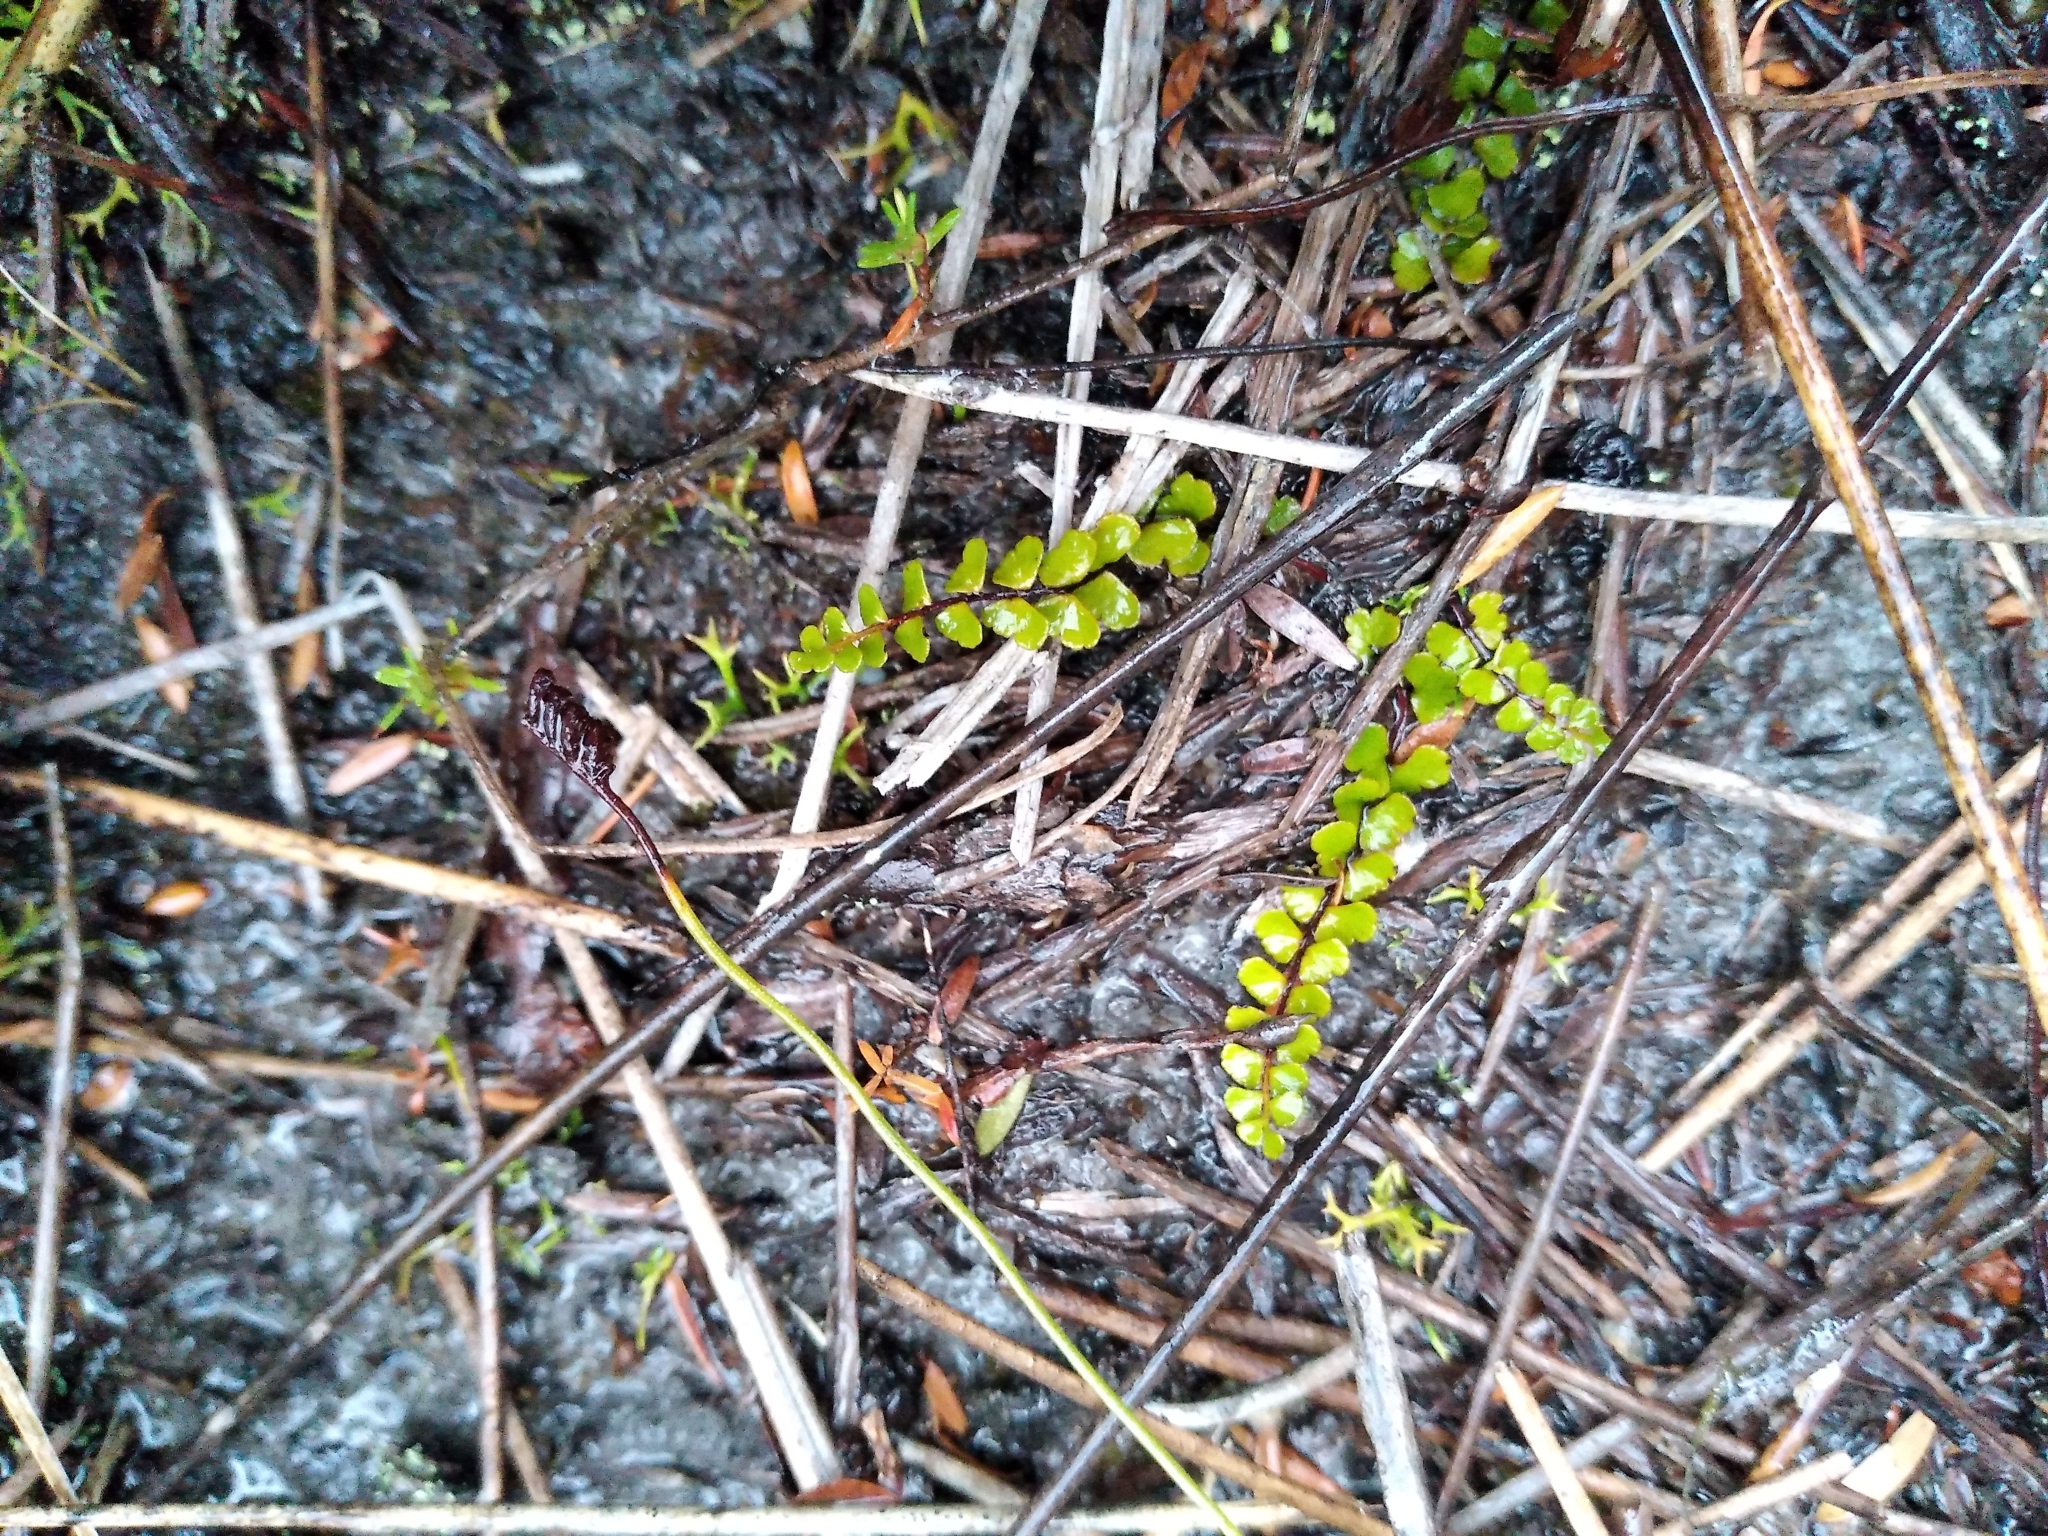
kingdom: Plantae
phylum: Tracheophyta
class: Polypodiopsida
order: Polypodiales
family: Lindsaeaceae
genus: Lindsaea
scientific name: Lindsaea linearis
